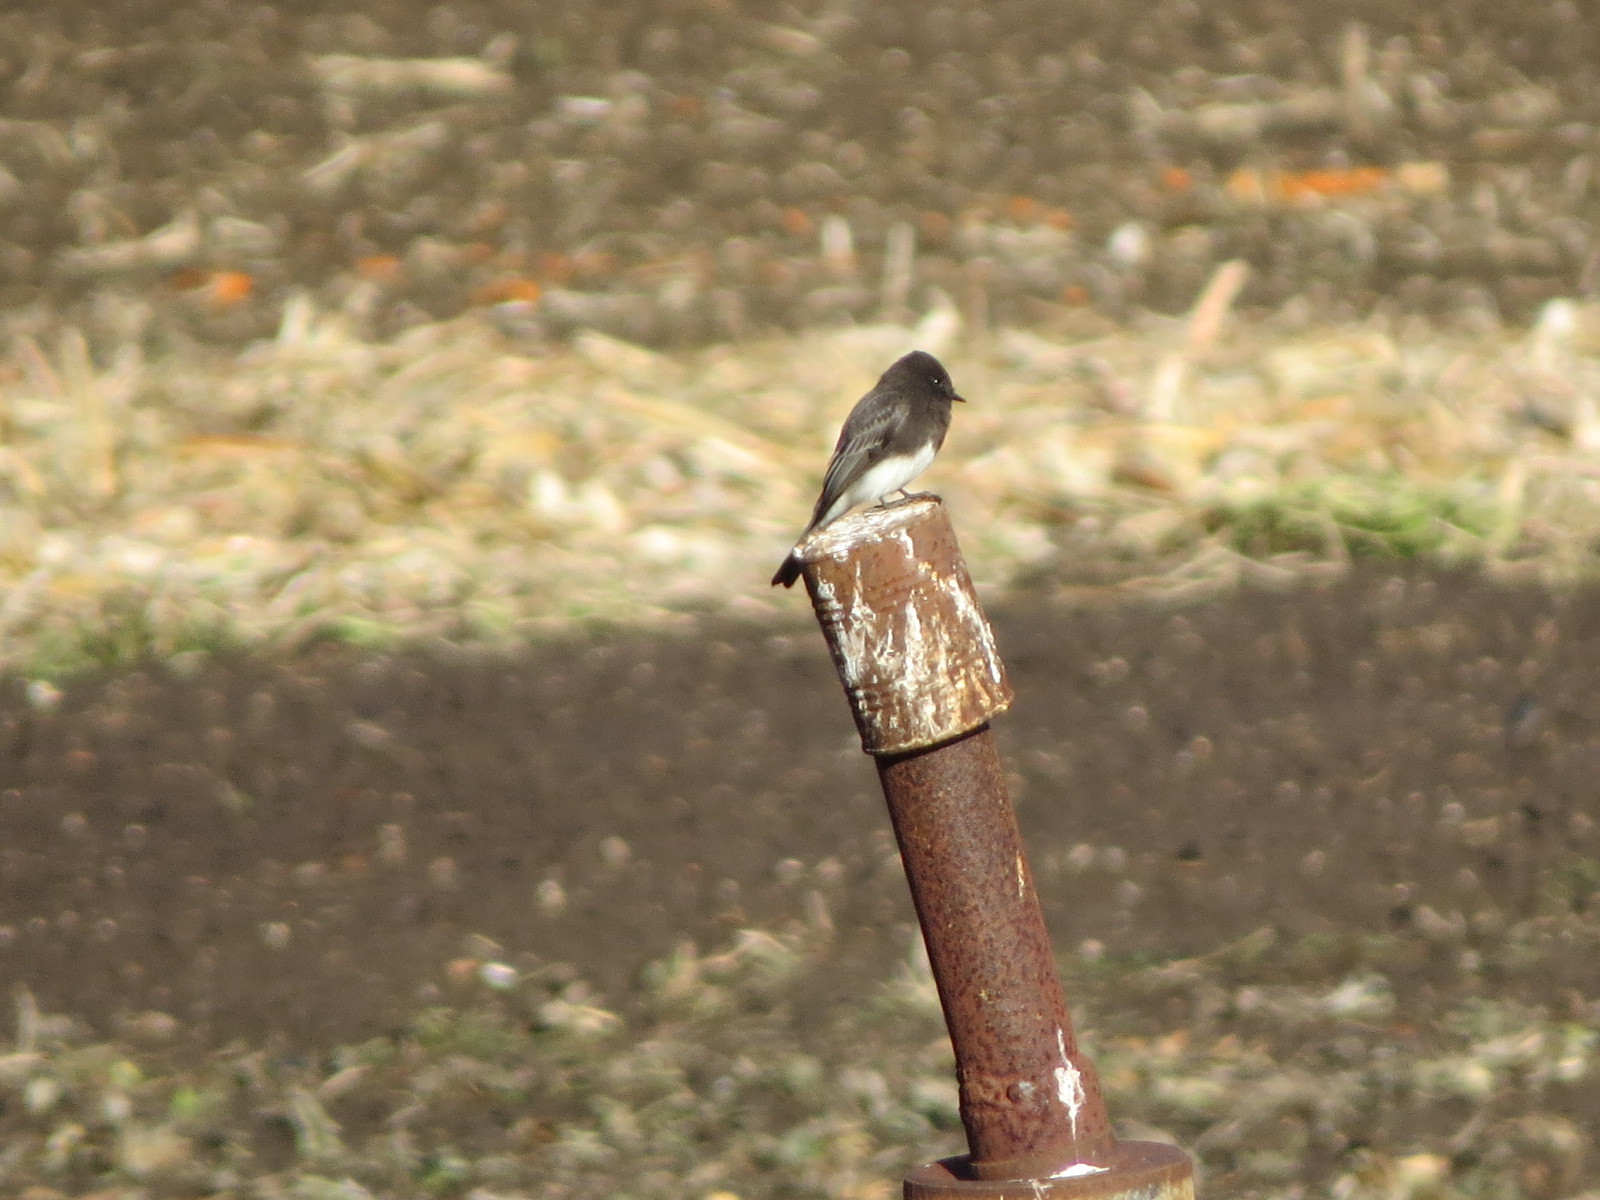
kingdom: Animalia
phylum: Chordata
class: Aves
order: Passeriformes
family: Tyrannidae
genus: Sayornis
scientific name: Sayornis nigricans
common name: Black phoebe
